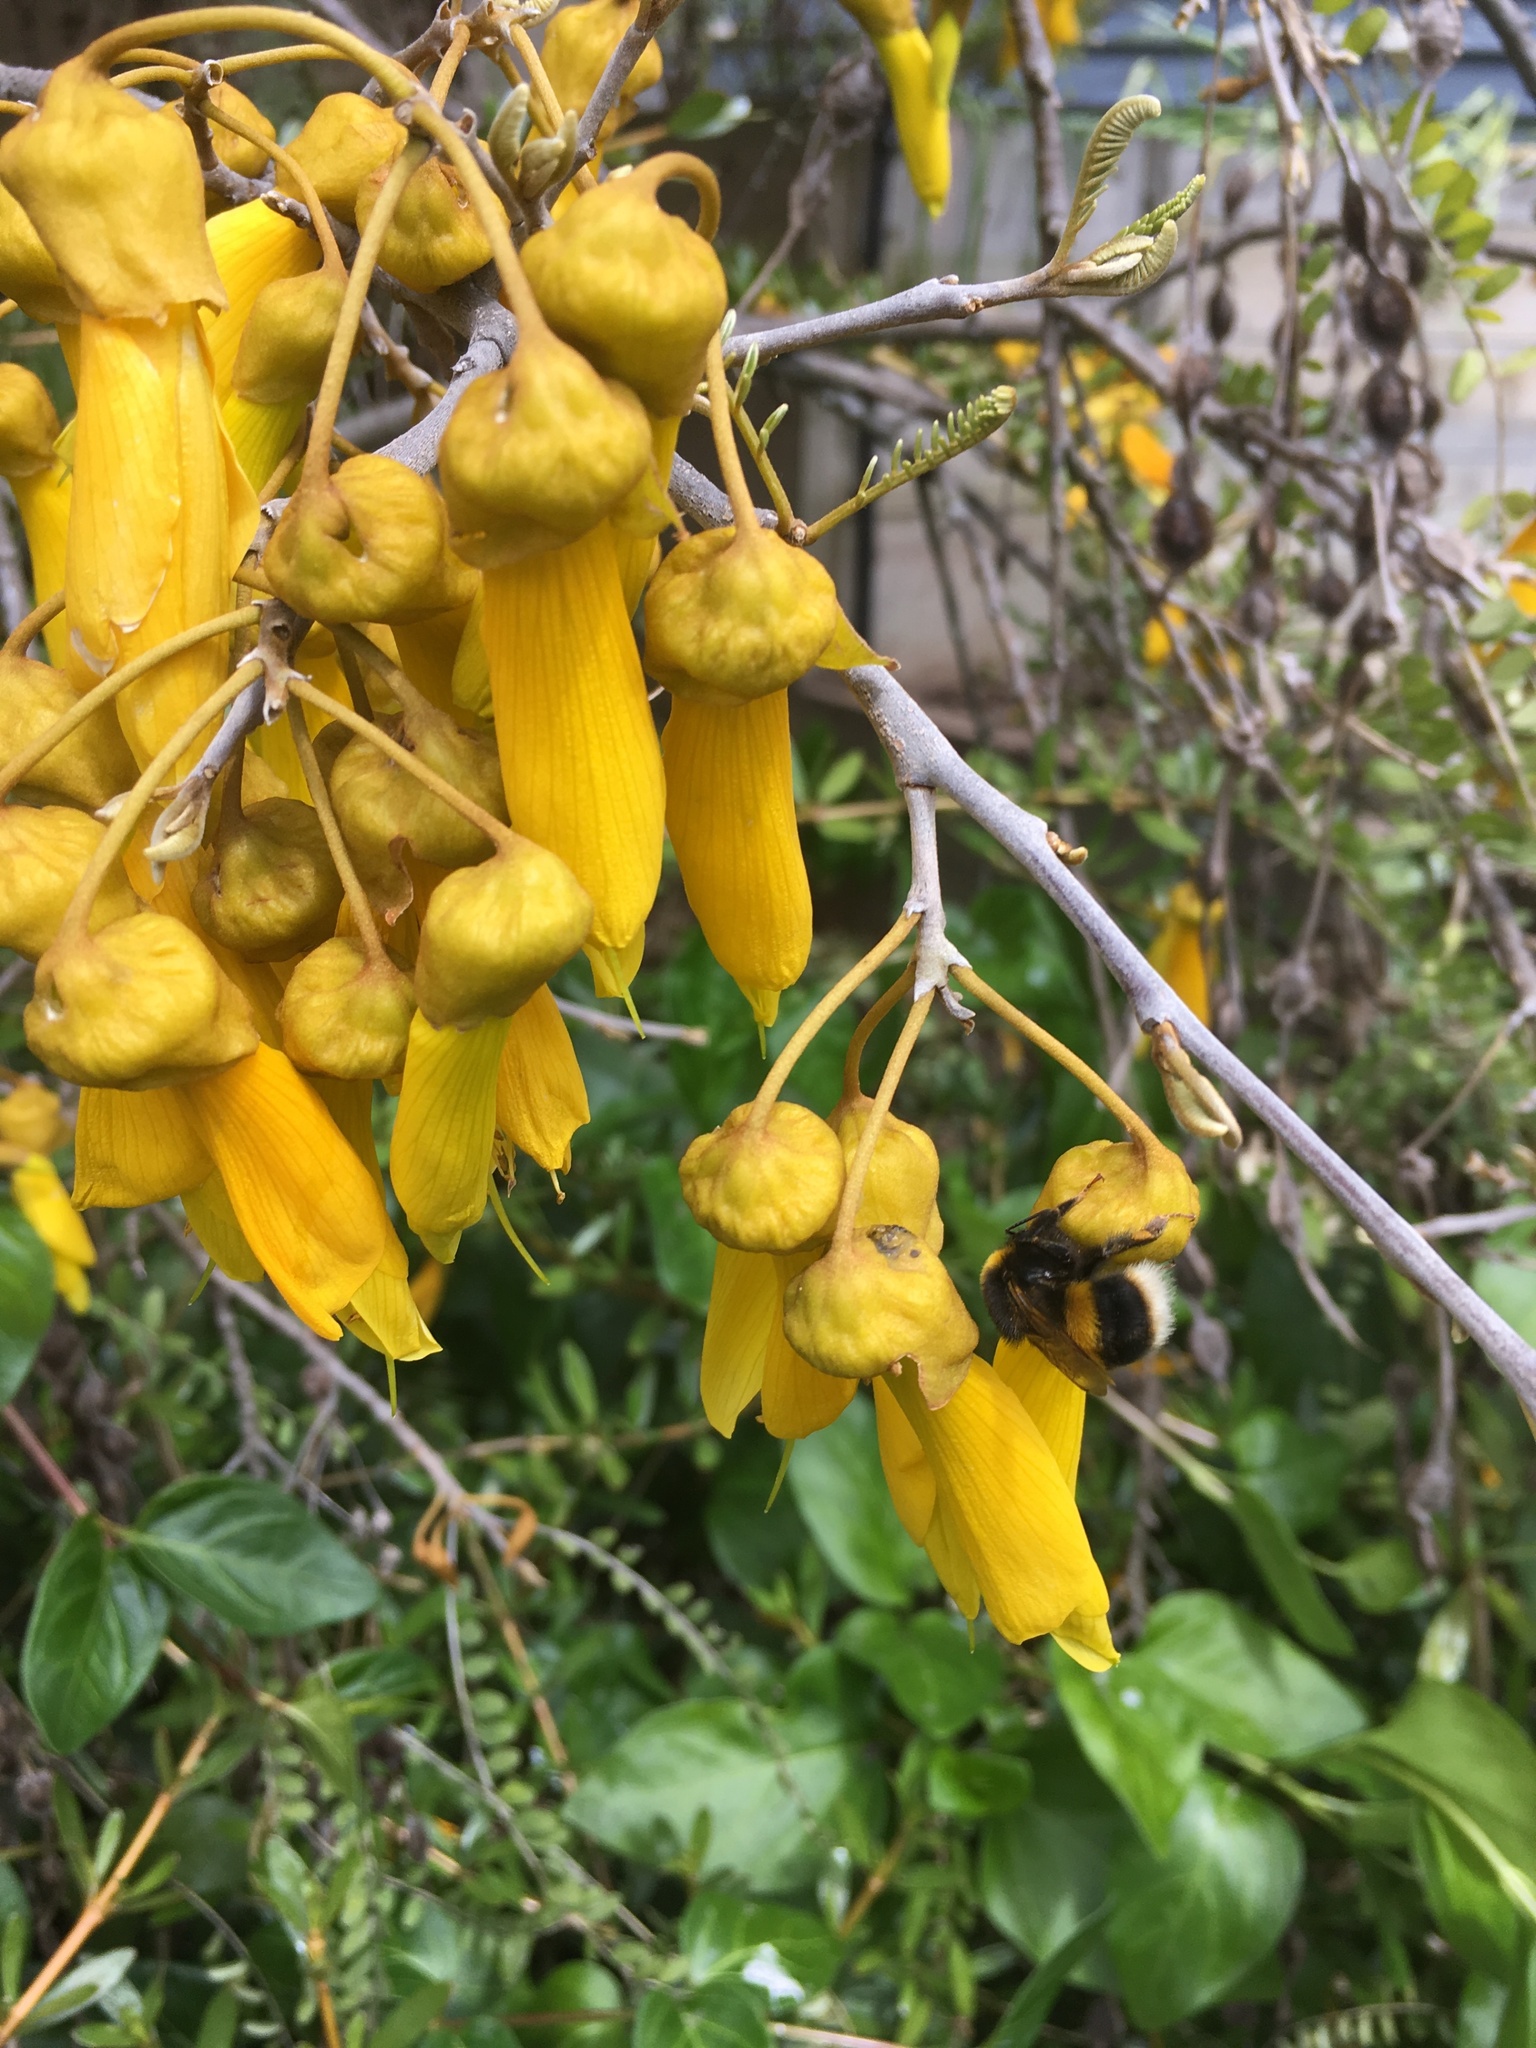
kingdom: Animalia
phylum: Arthropoda
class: Insecta
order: Hymenoptera
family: Apidae
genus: Bombus
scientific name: Bombus terrestris
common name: Buff-tailed bumblebee
